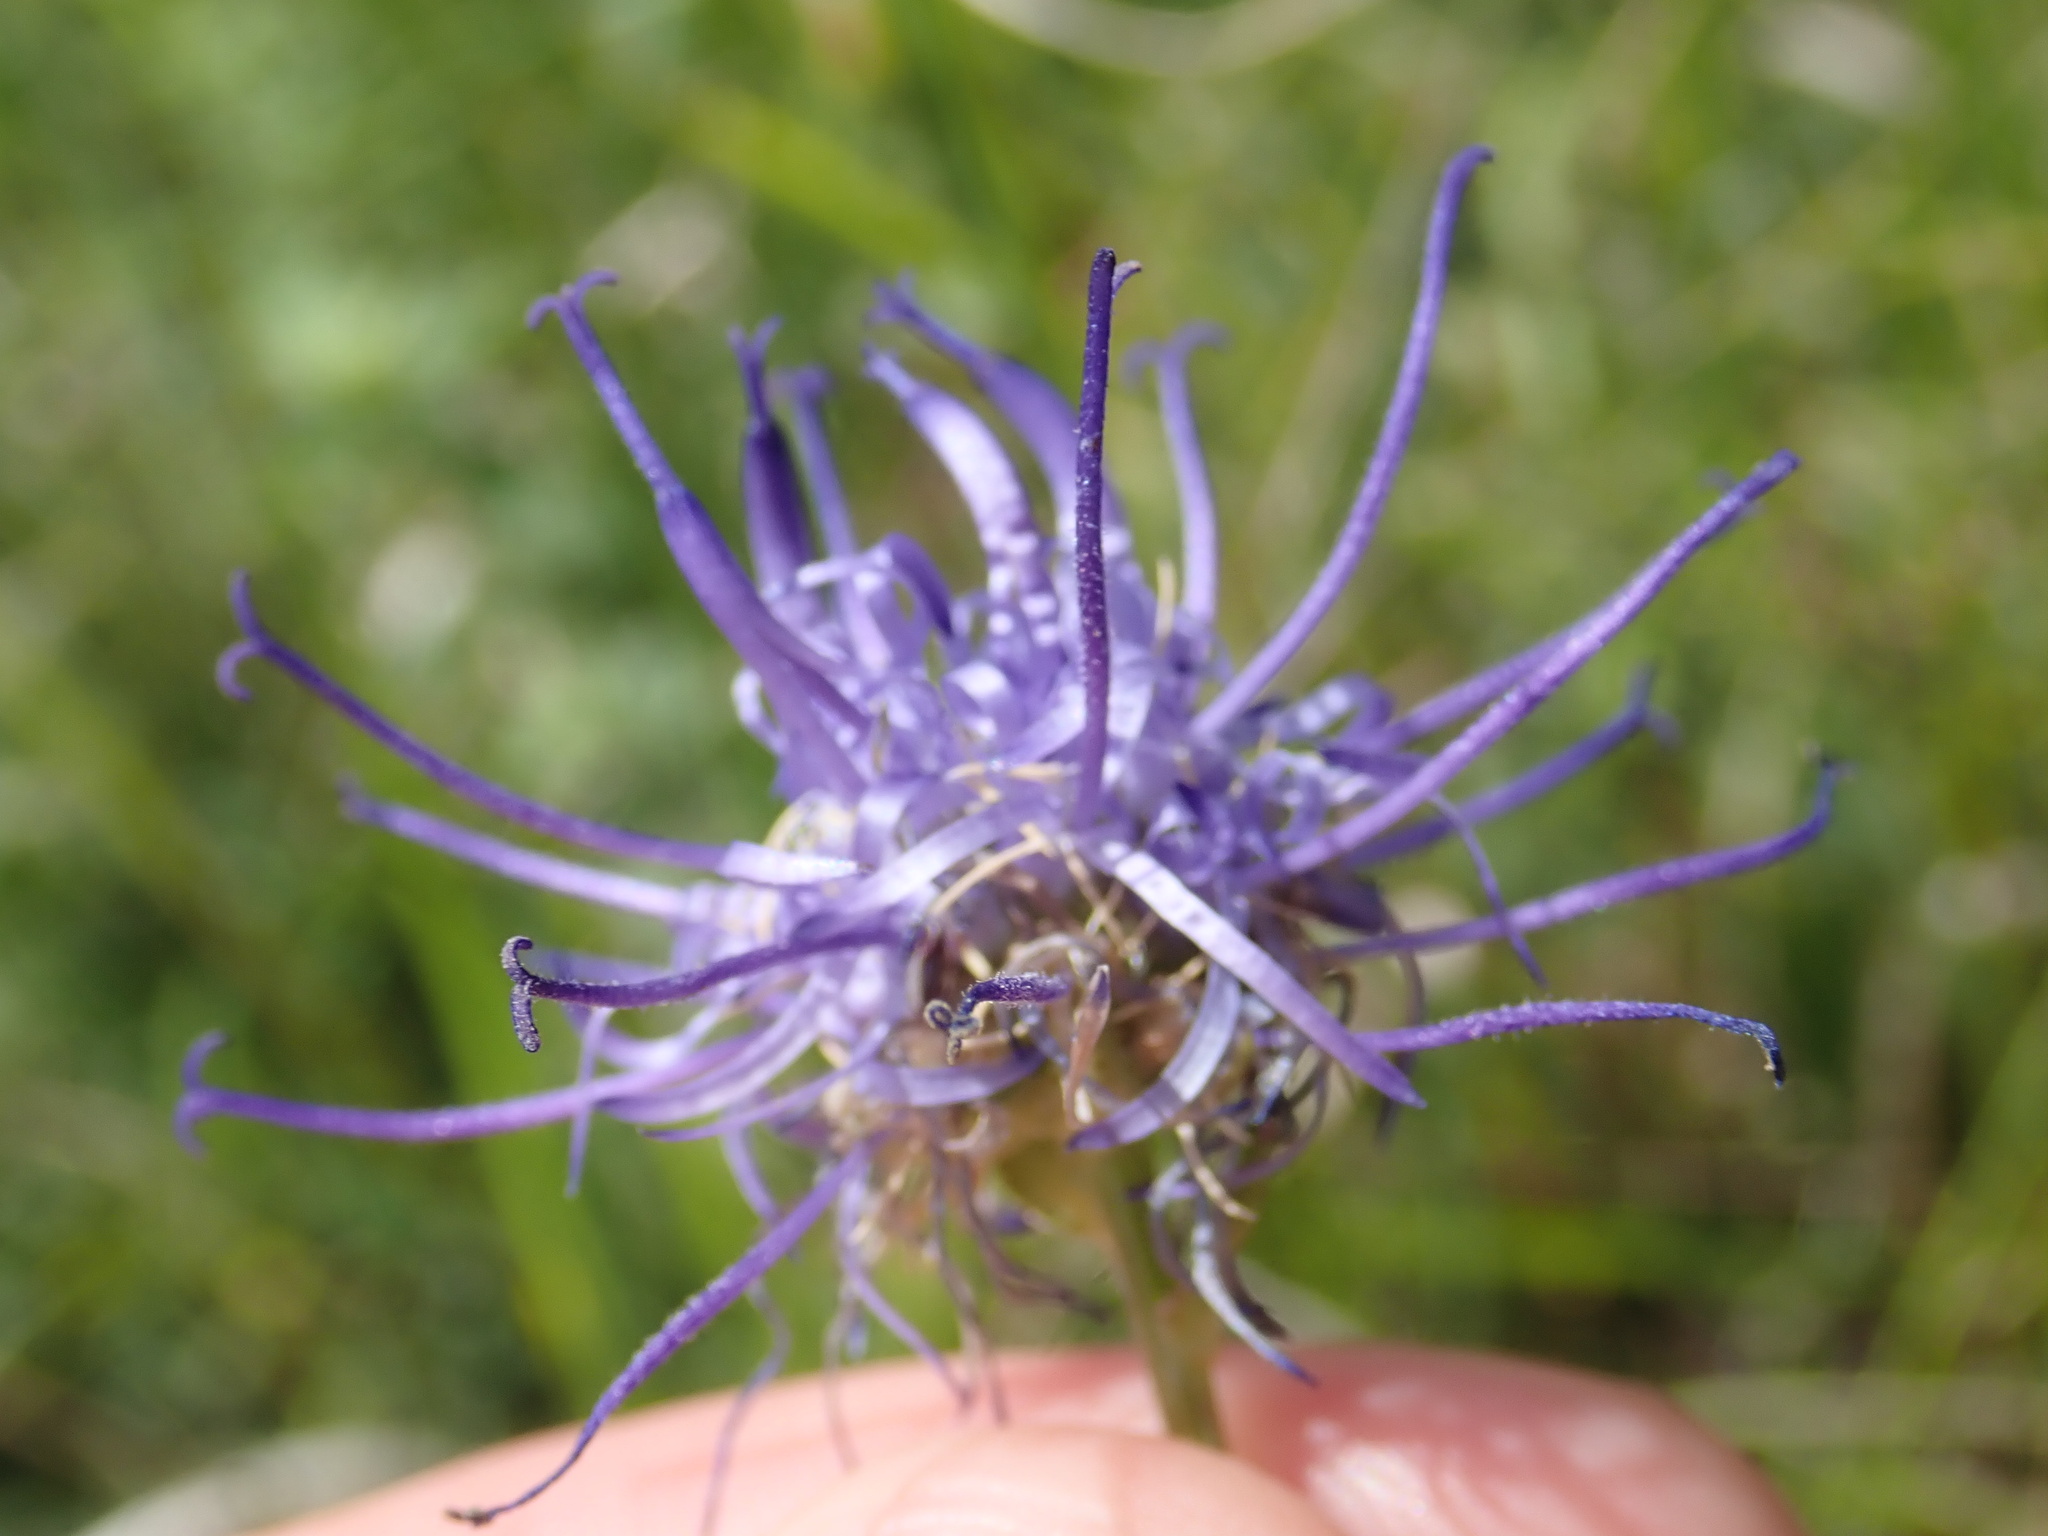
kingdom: Plantae
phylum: Tracheophyta
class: Magnoliopsida
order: Asterales
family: Campanulaceae
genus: Phyteuma
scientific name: Phyteuma orbiculare
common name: Round-headed rampion
